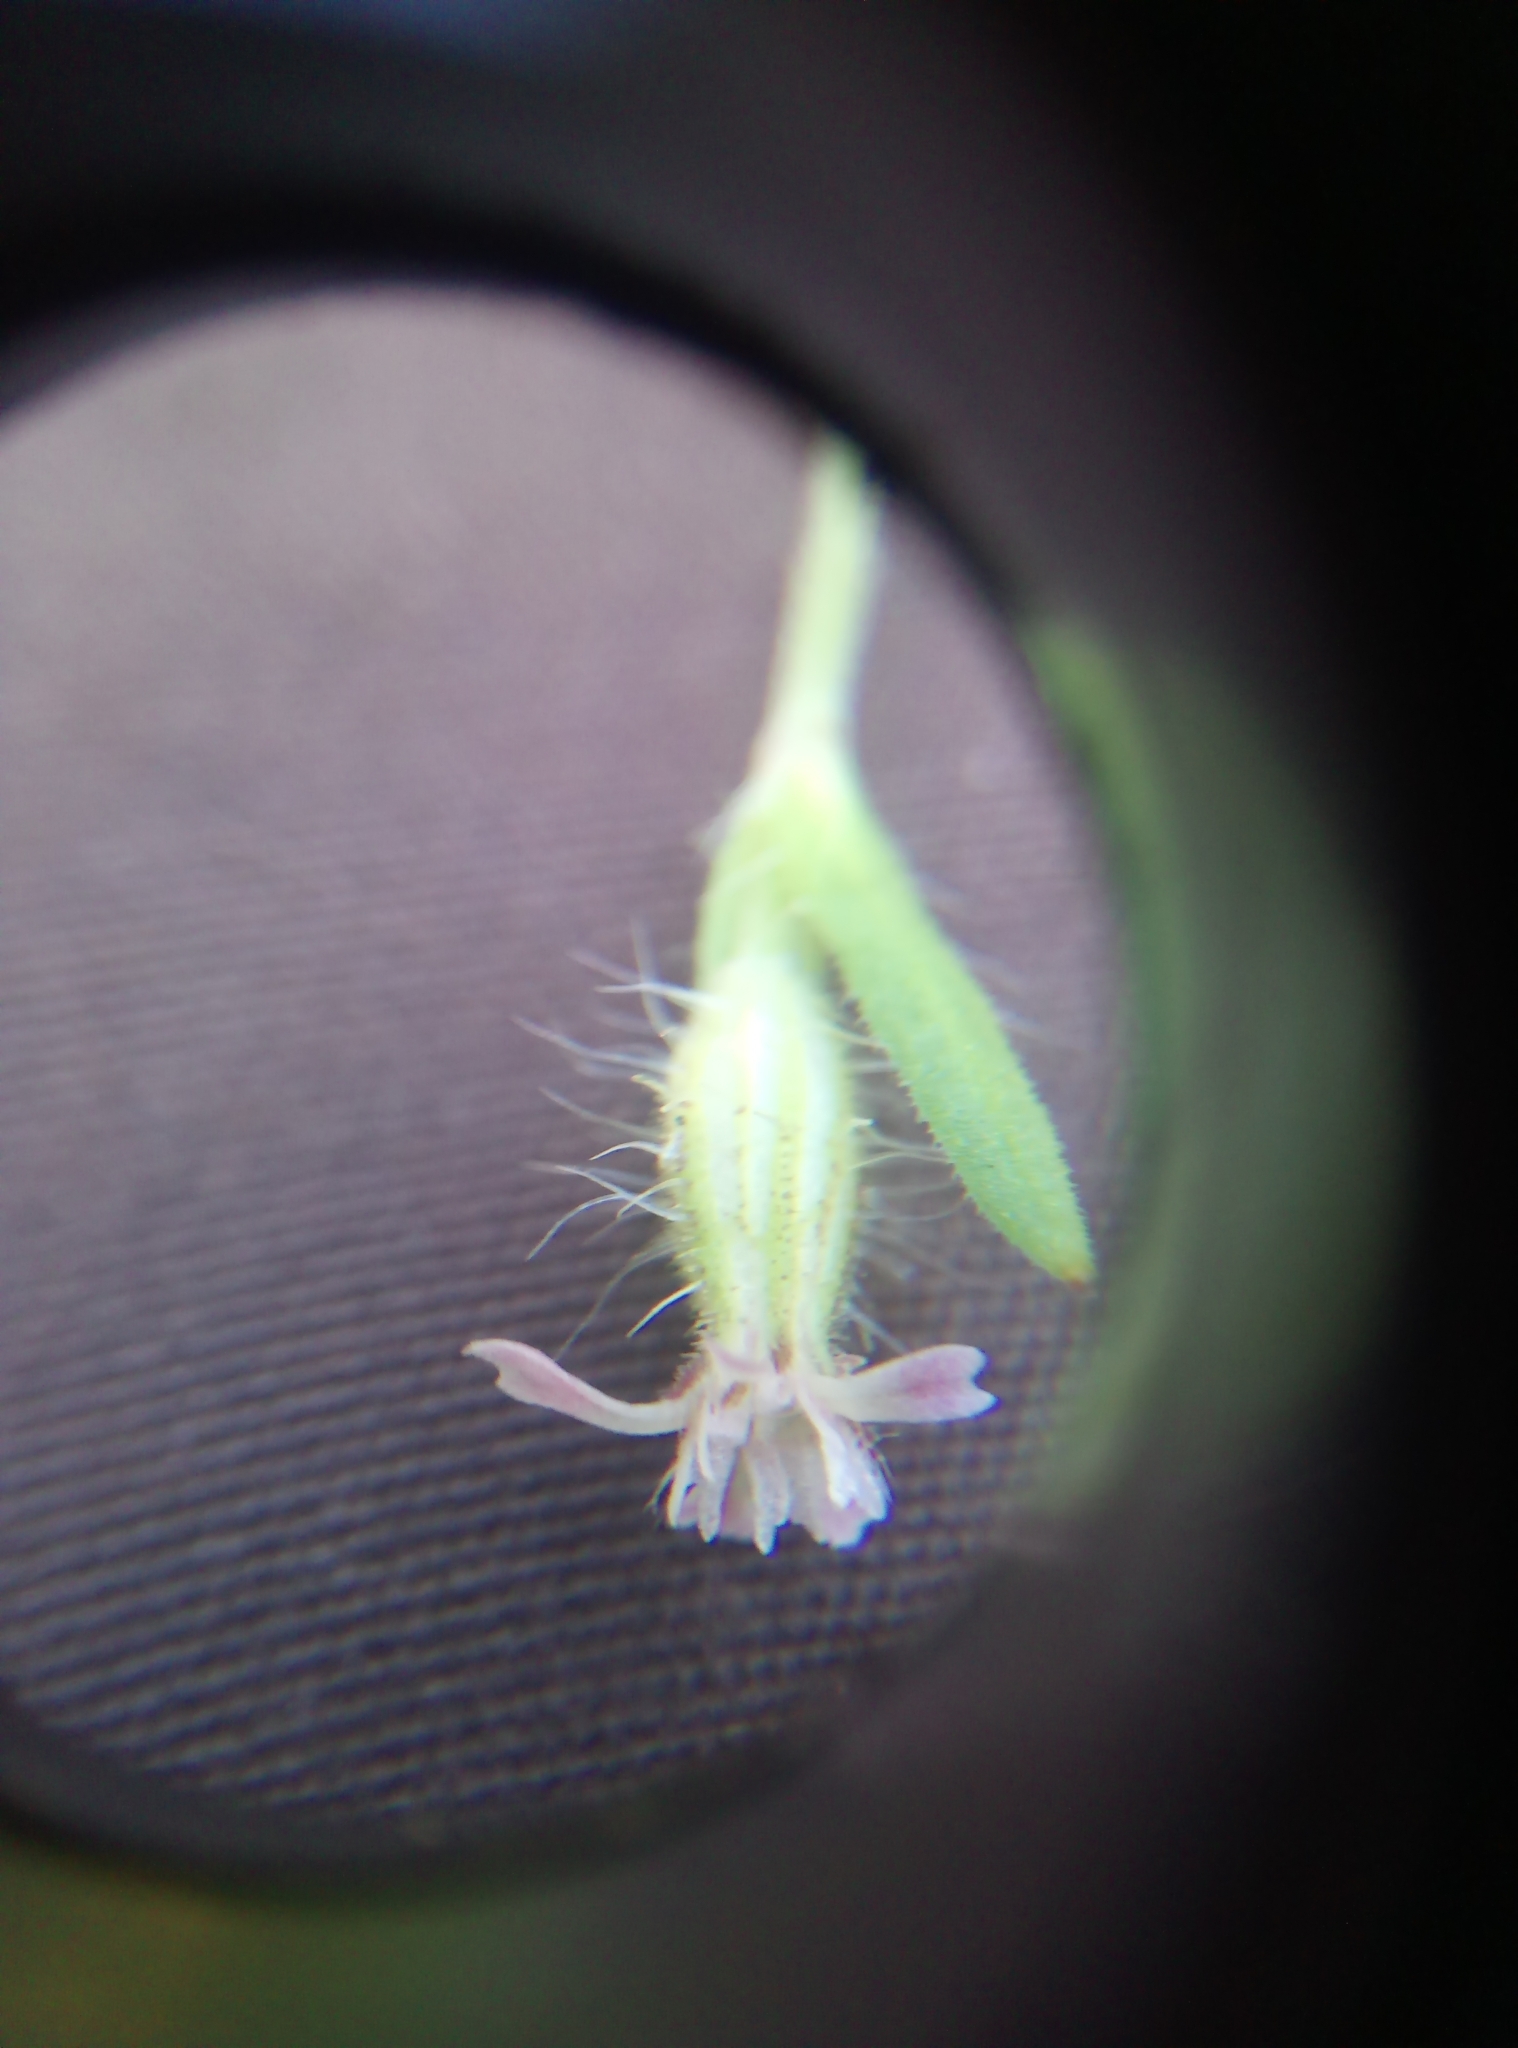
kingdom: Plantae
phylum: Tracheophyta
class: Magnoliopsida
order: Caryophyllales
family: Caryophyllaceae
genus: Silene
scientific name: Silene gallica
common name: Small-flowered catchfly
